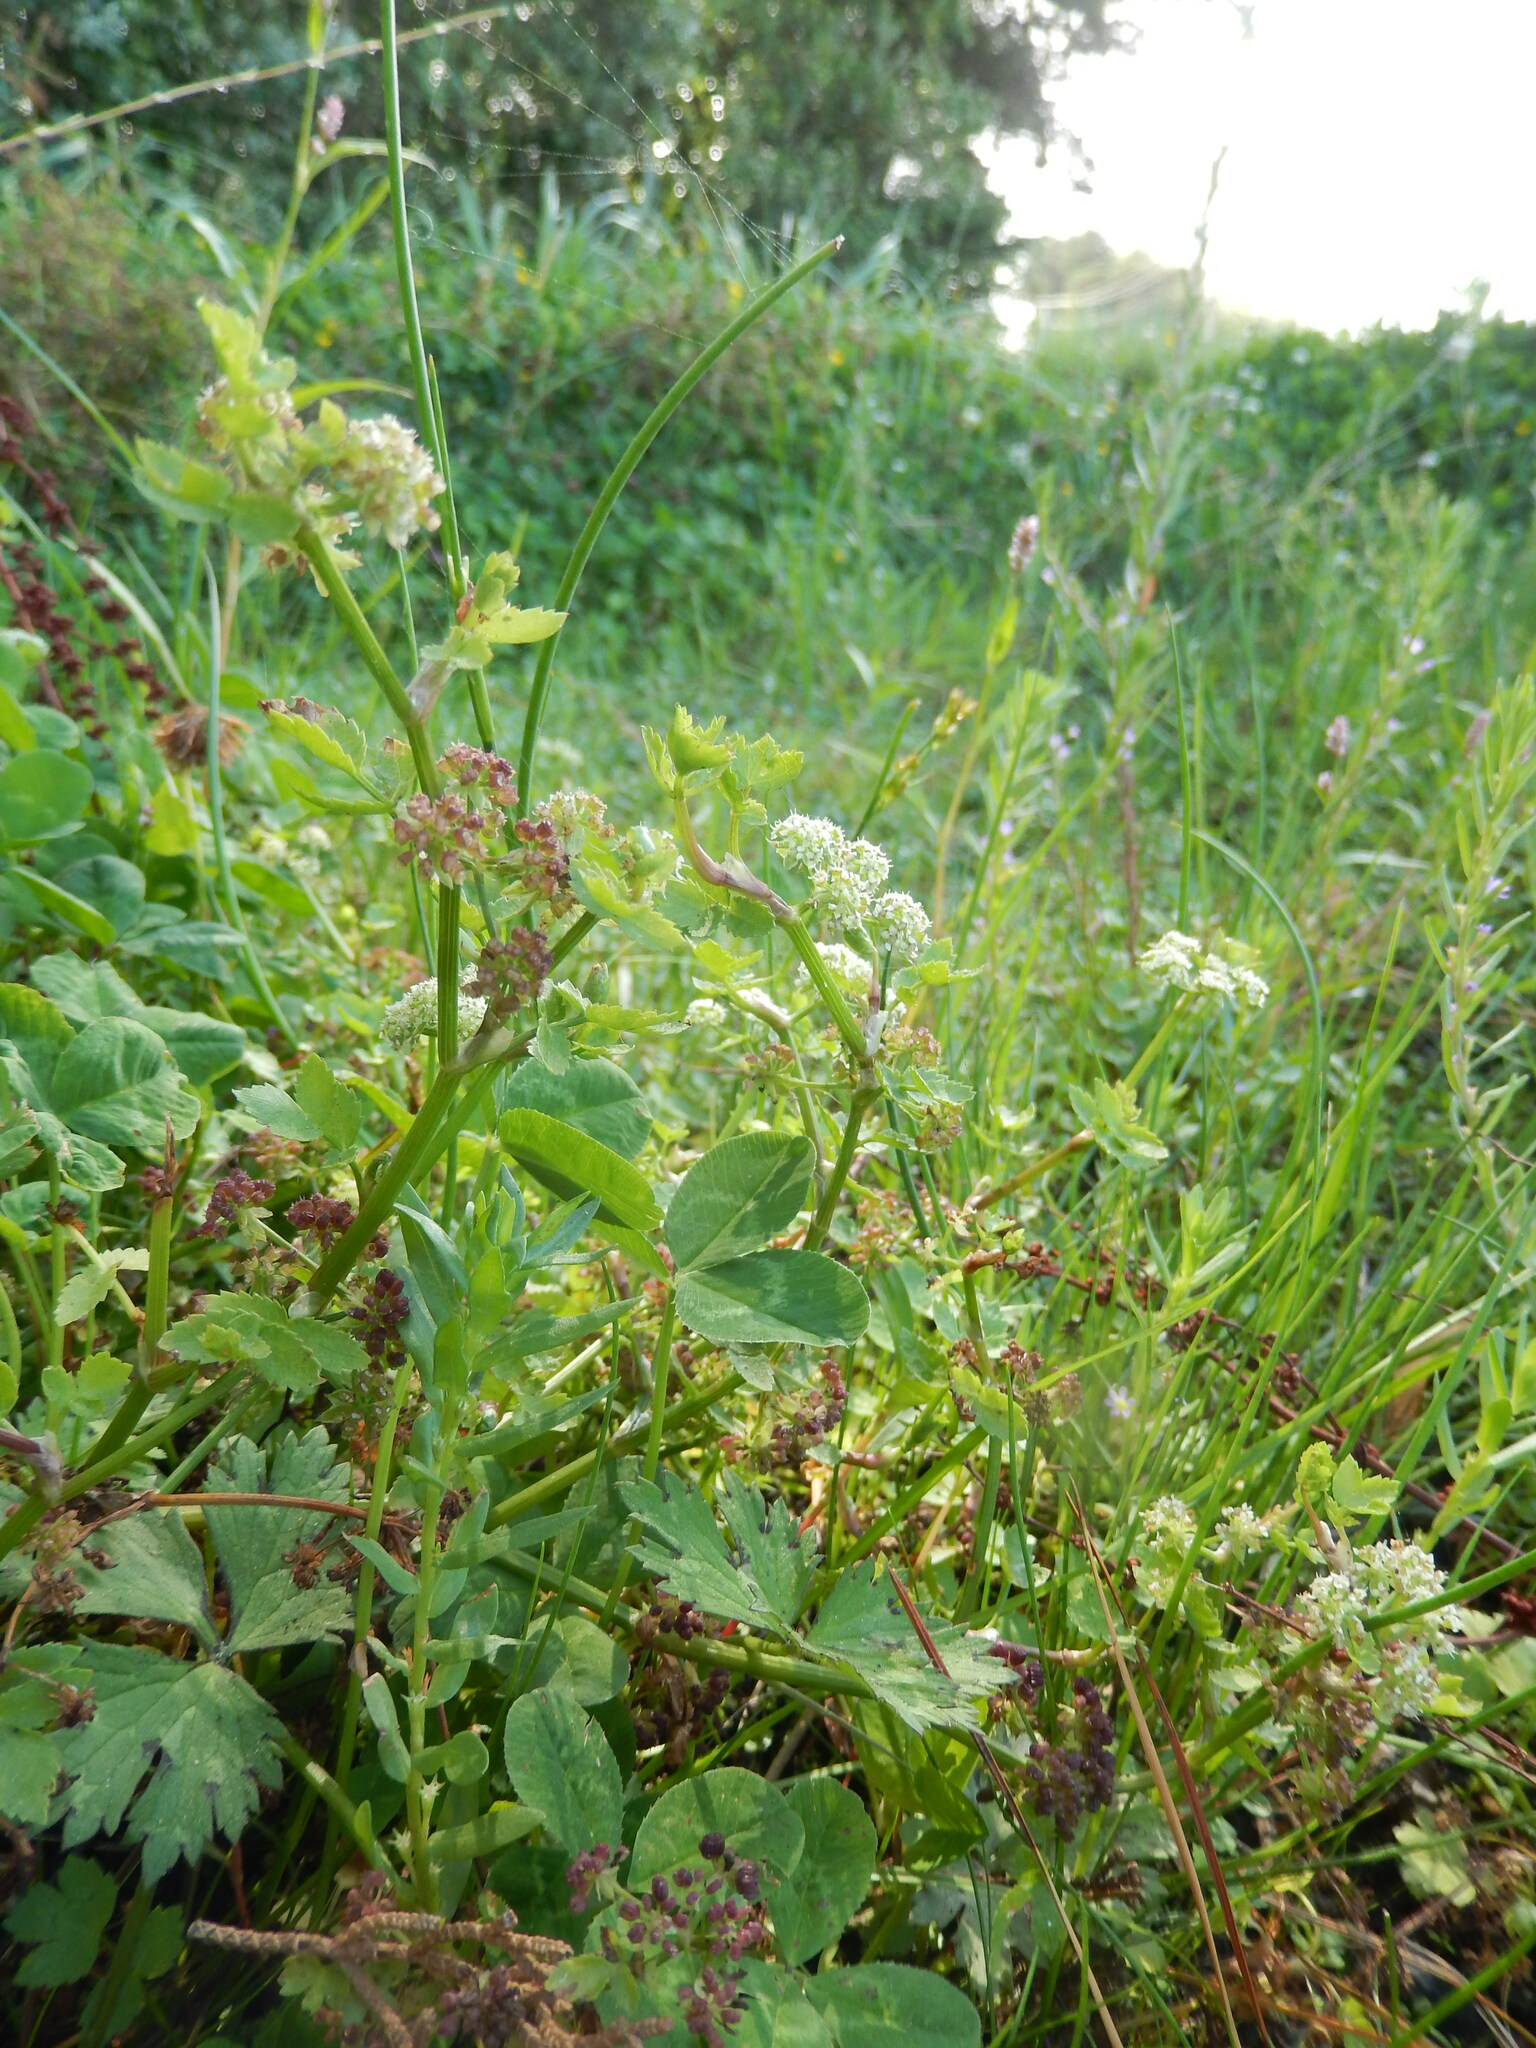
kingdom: Plantae
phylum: Tracheophyta
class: Magnoliopsida
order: Apiales
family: Apiaceae
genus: Helosciadium
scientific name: Helosciadium nodiflorum
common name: Fool's-watercress
